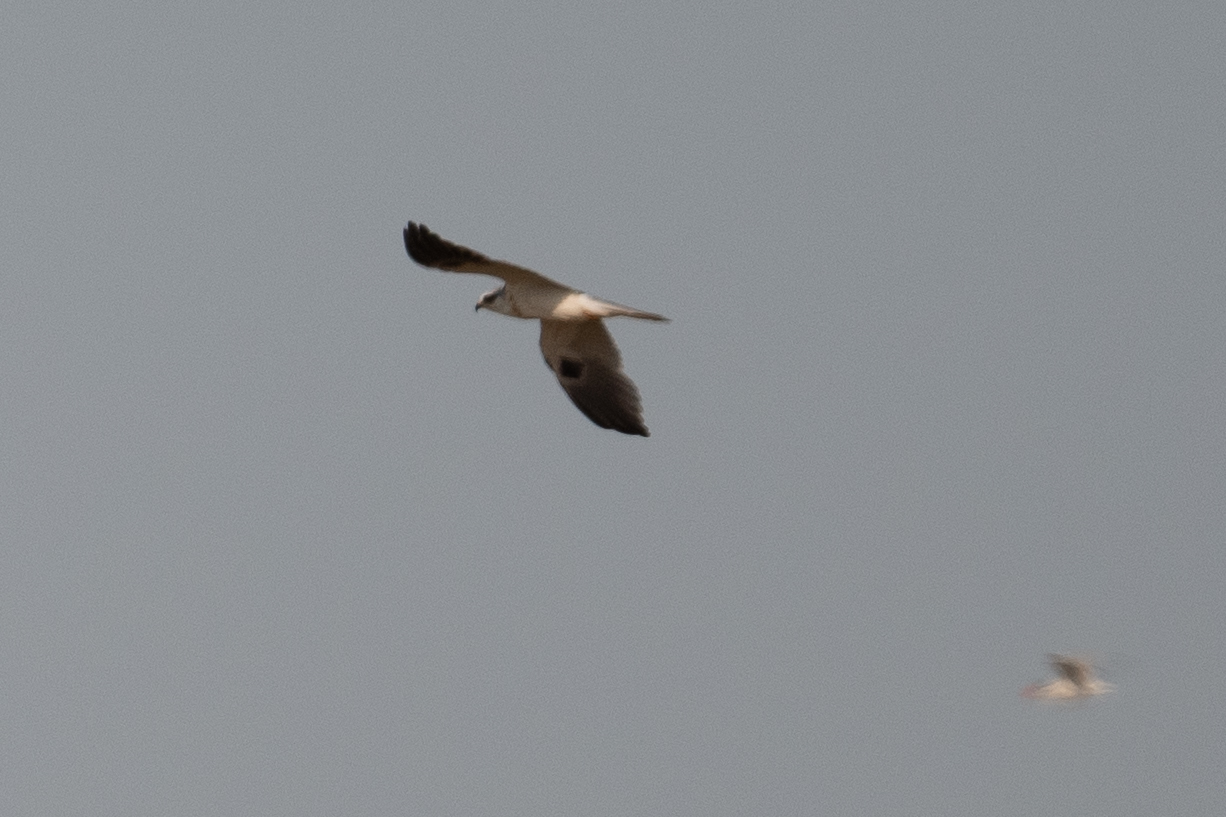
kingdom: Animalia
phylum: Chordata
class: Aves
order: Accipitriformes
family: Accipitridae
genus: Elanus
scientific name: Elanus leucurus
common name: White-tailed kite
